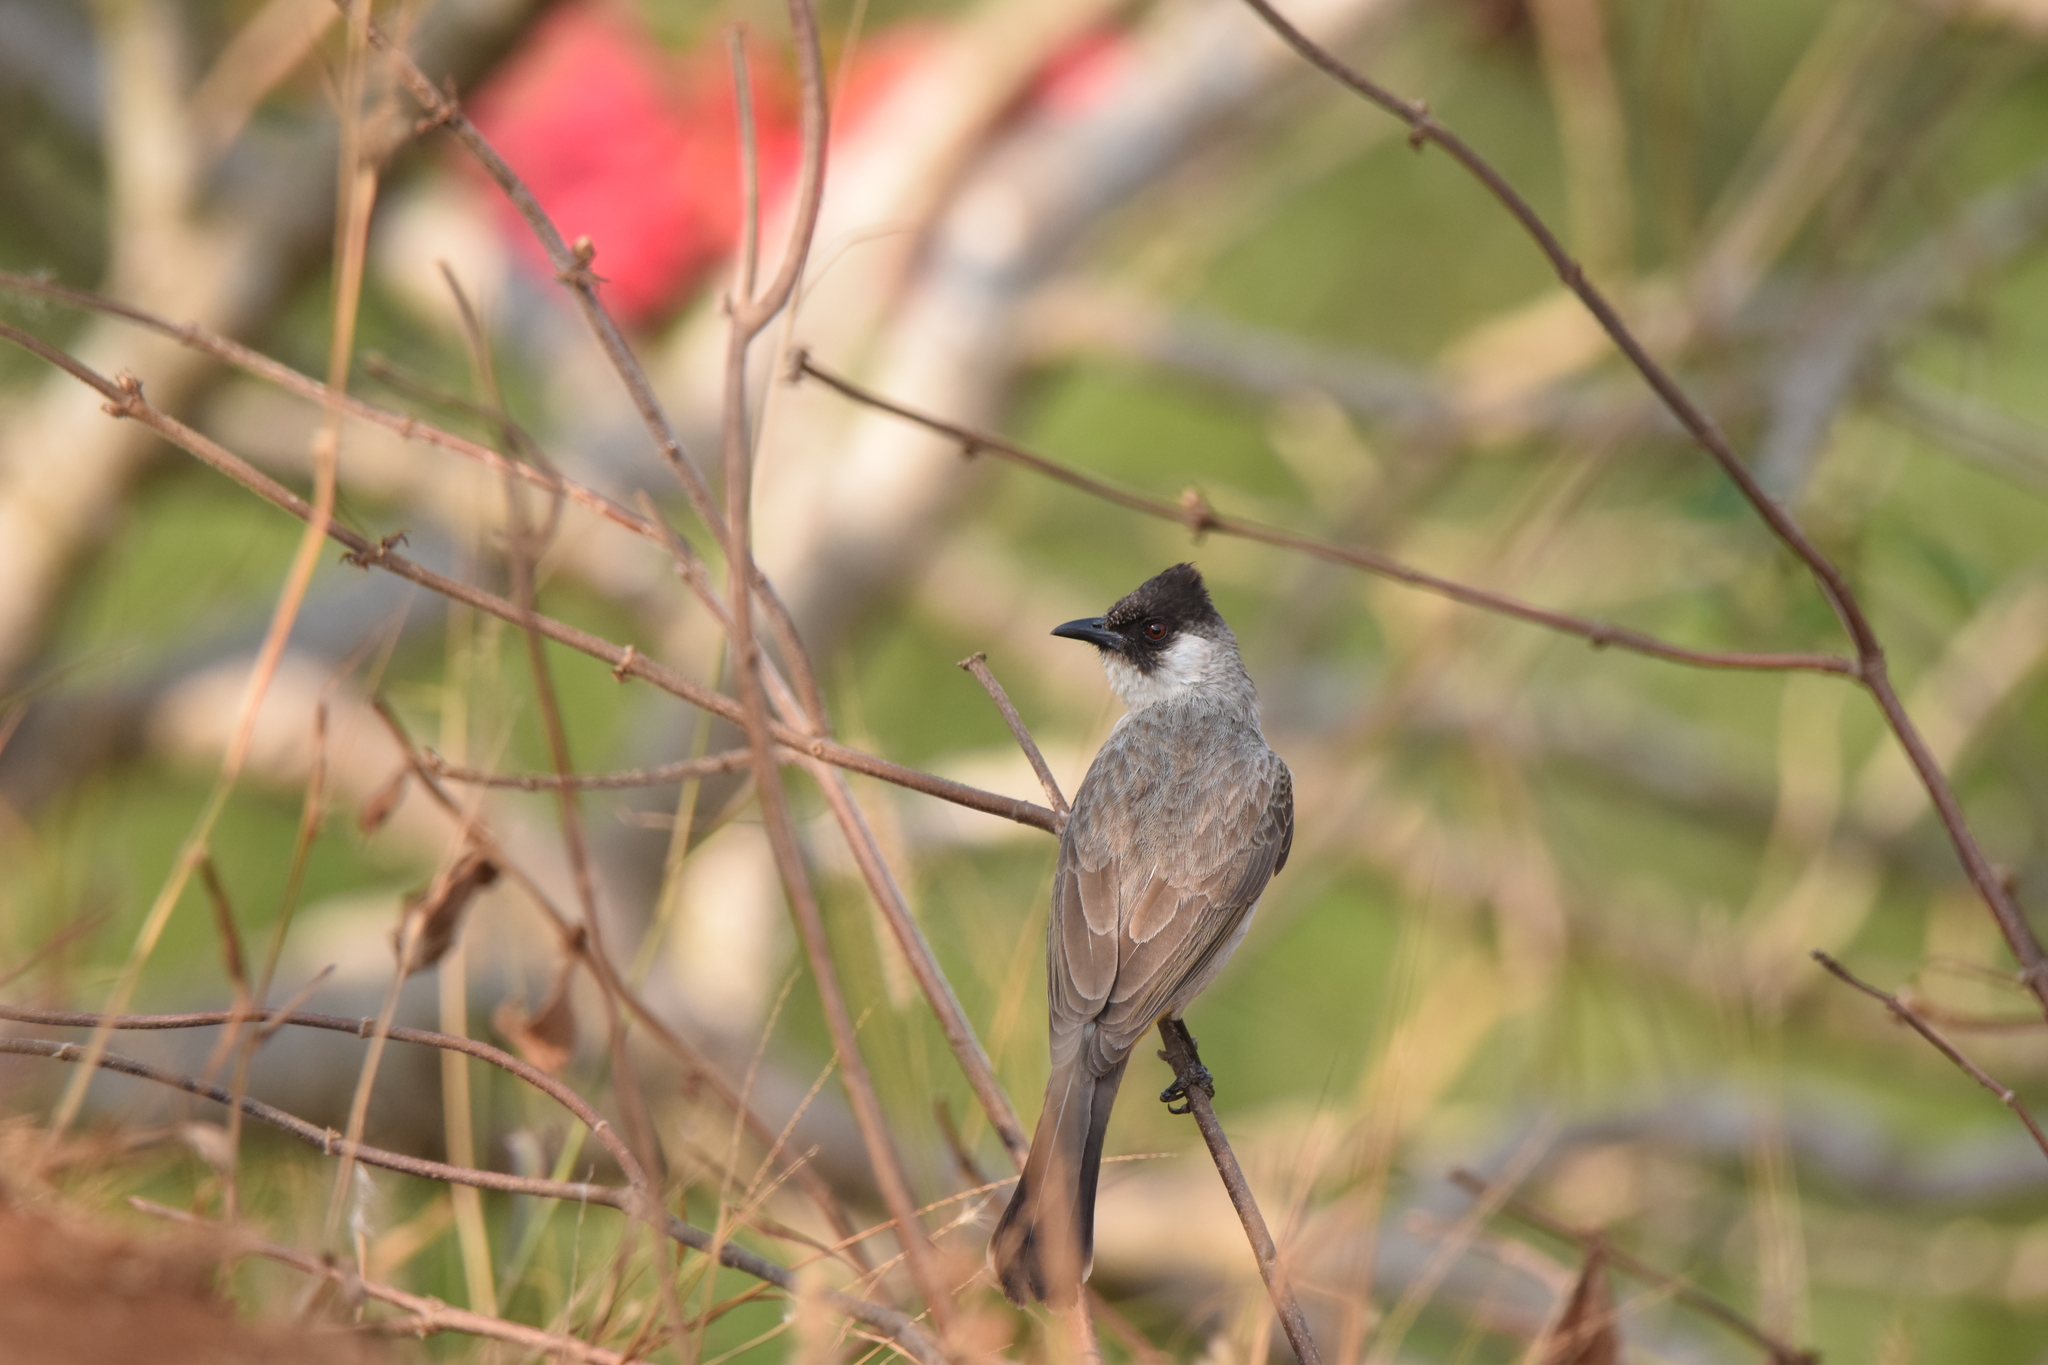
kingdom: Animalia
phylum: Chordata
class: Aves
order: Passeriformes
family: Pycnonotidae
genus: Pycnonotus
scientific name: Pycnonotus aurigaster
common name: Sooty-headed bulbul
